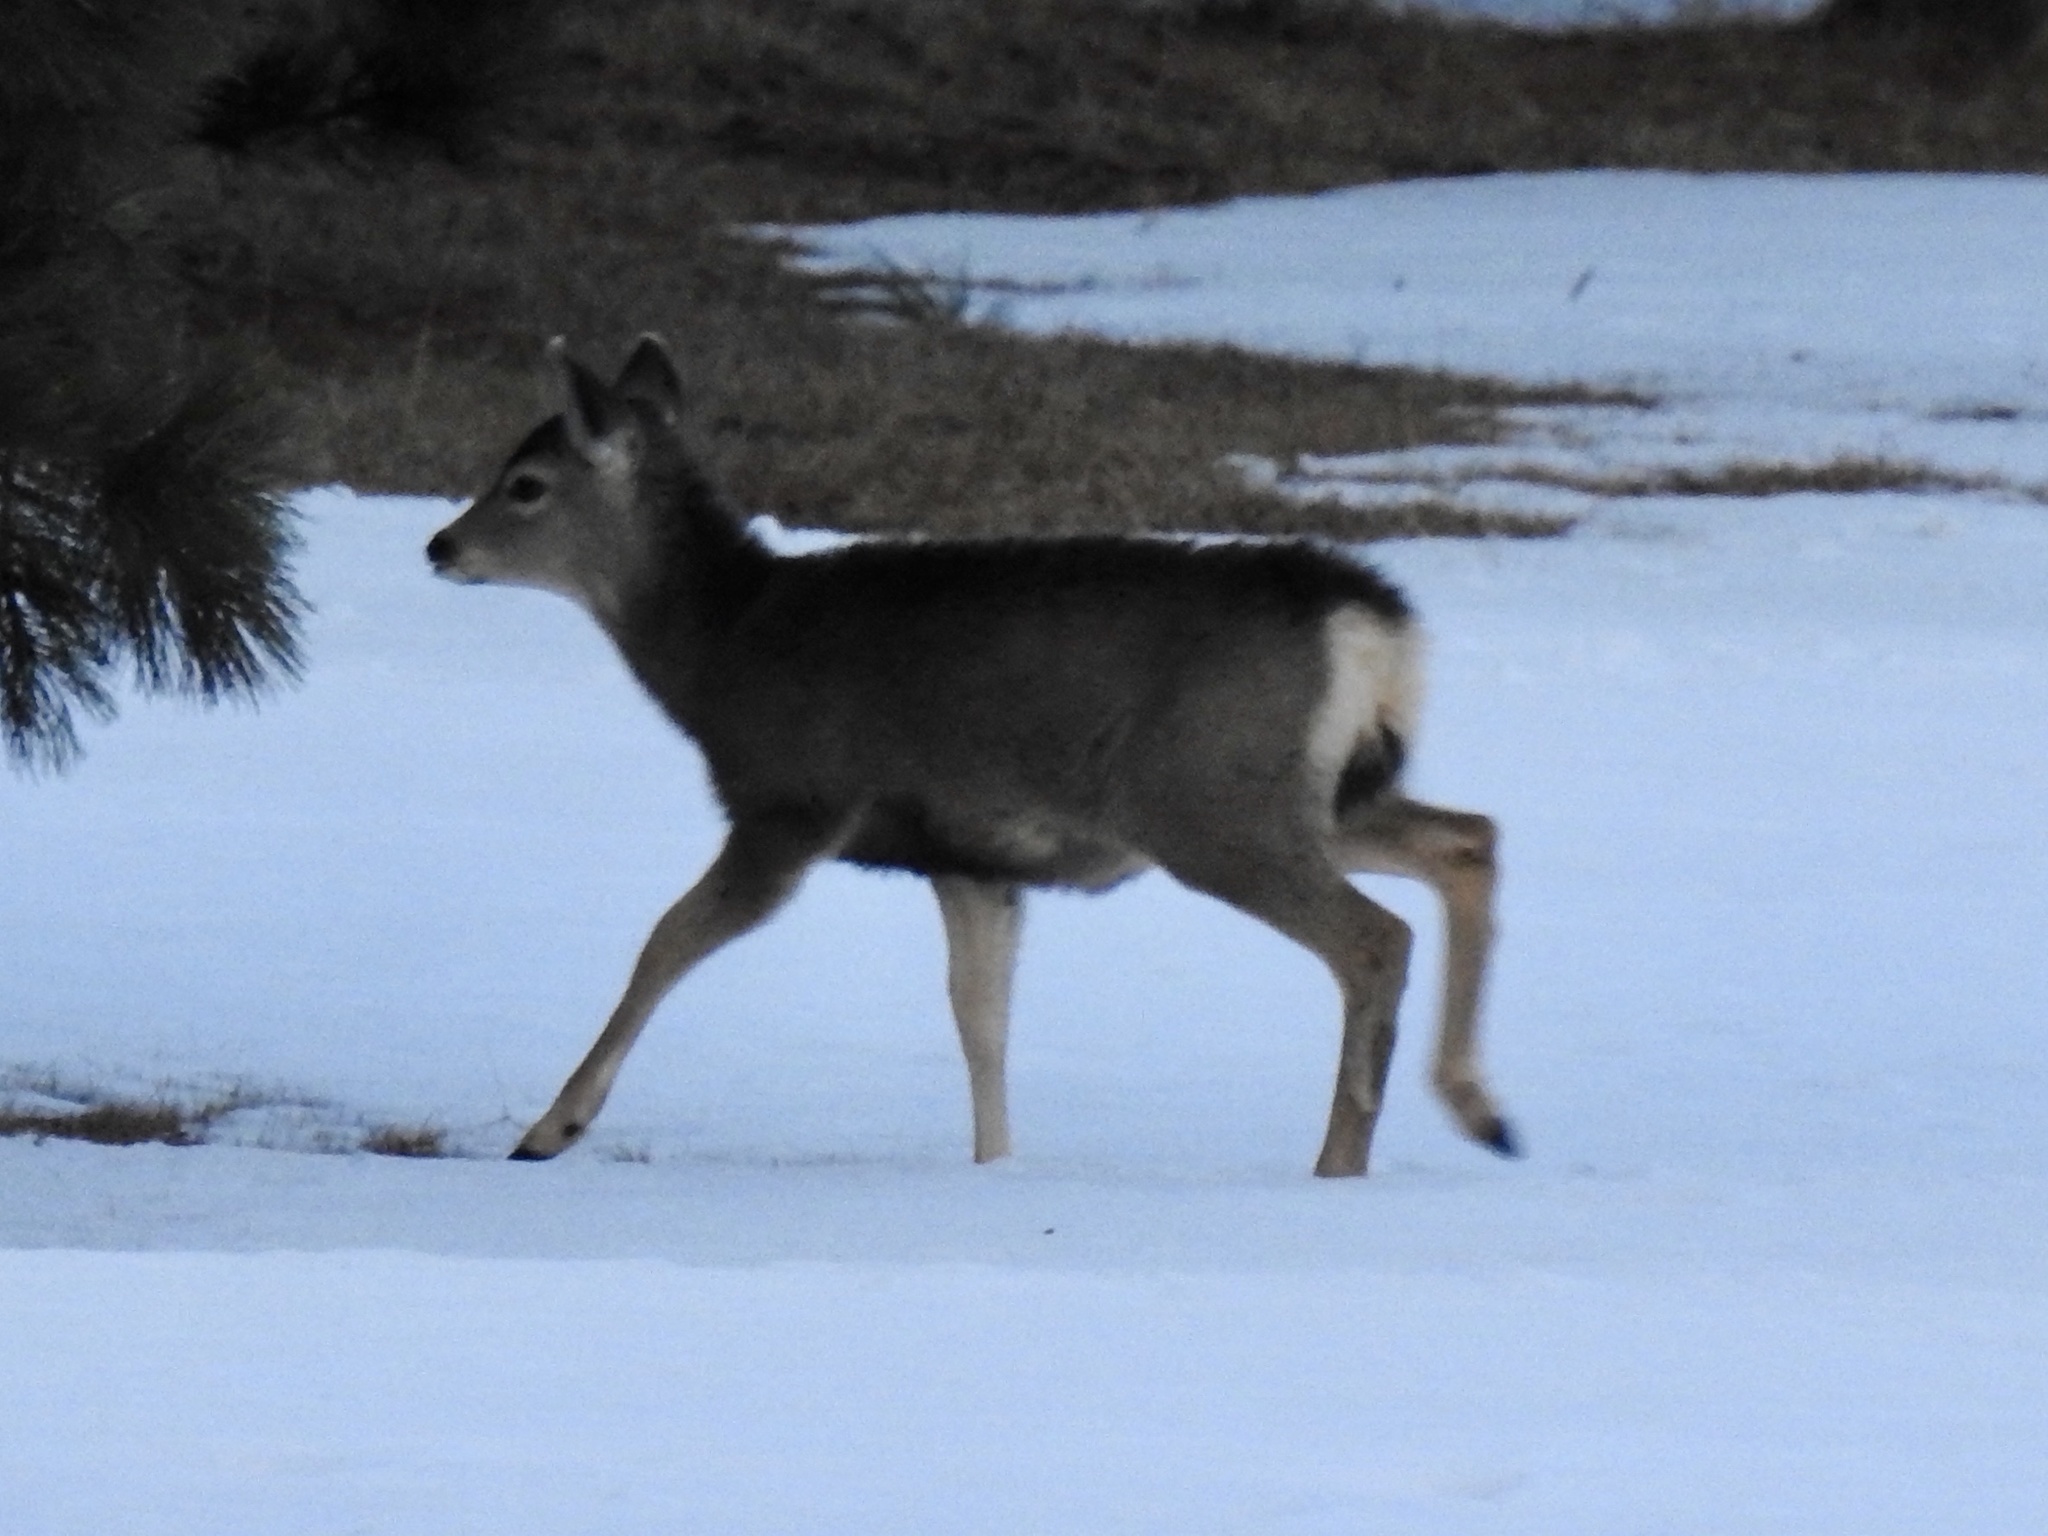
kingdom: Animalia
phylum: Chordata
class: Mammalia
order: Artiodactyla
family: Cervidae
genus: Odocoileus
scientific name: Odocoileus hemionus
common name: Mule deer
